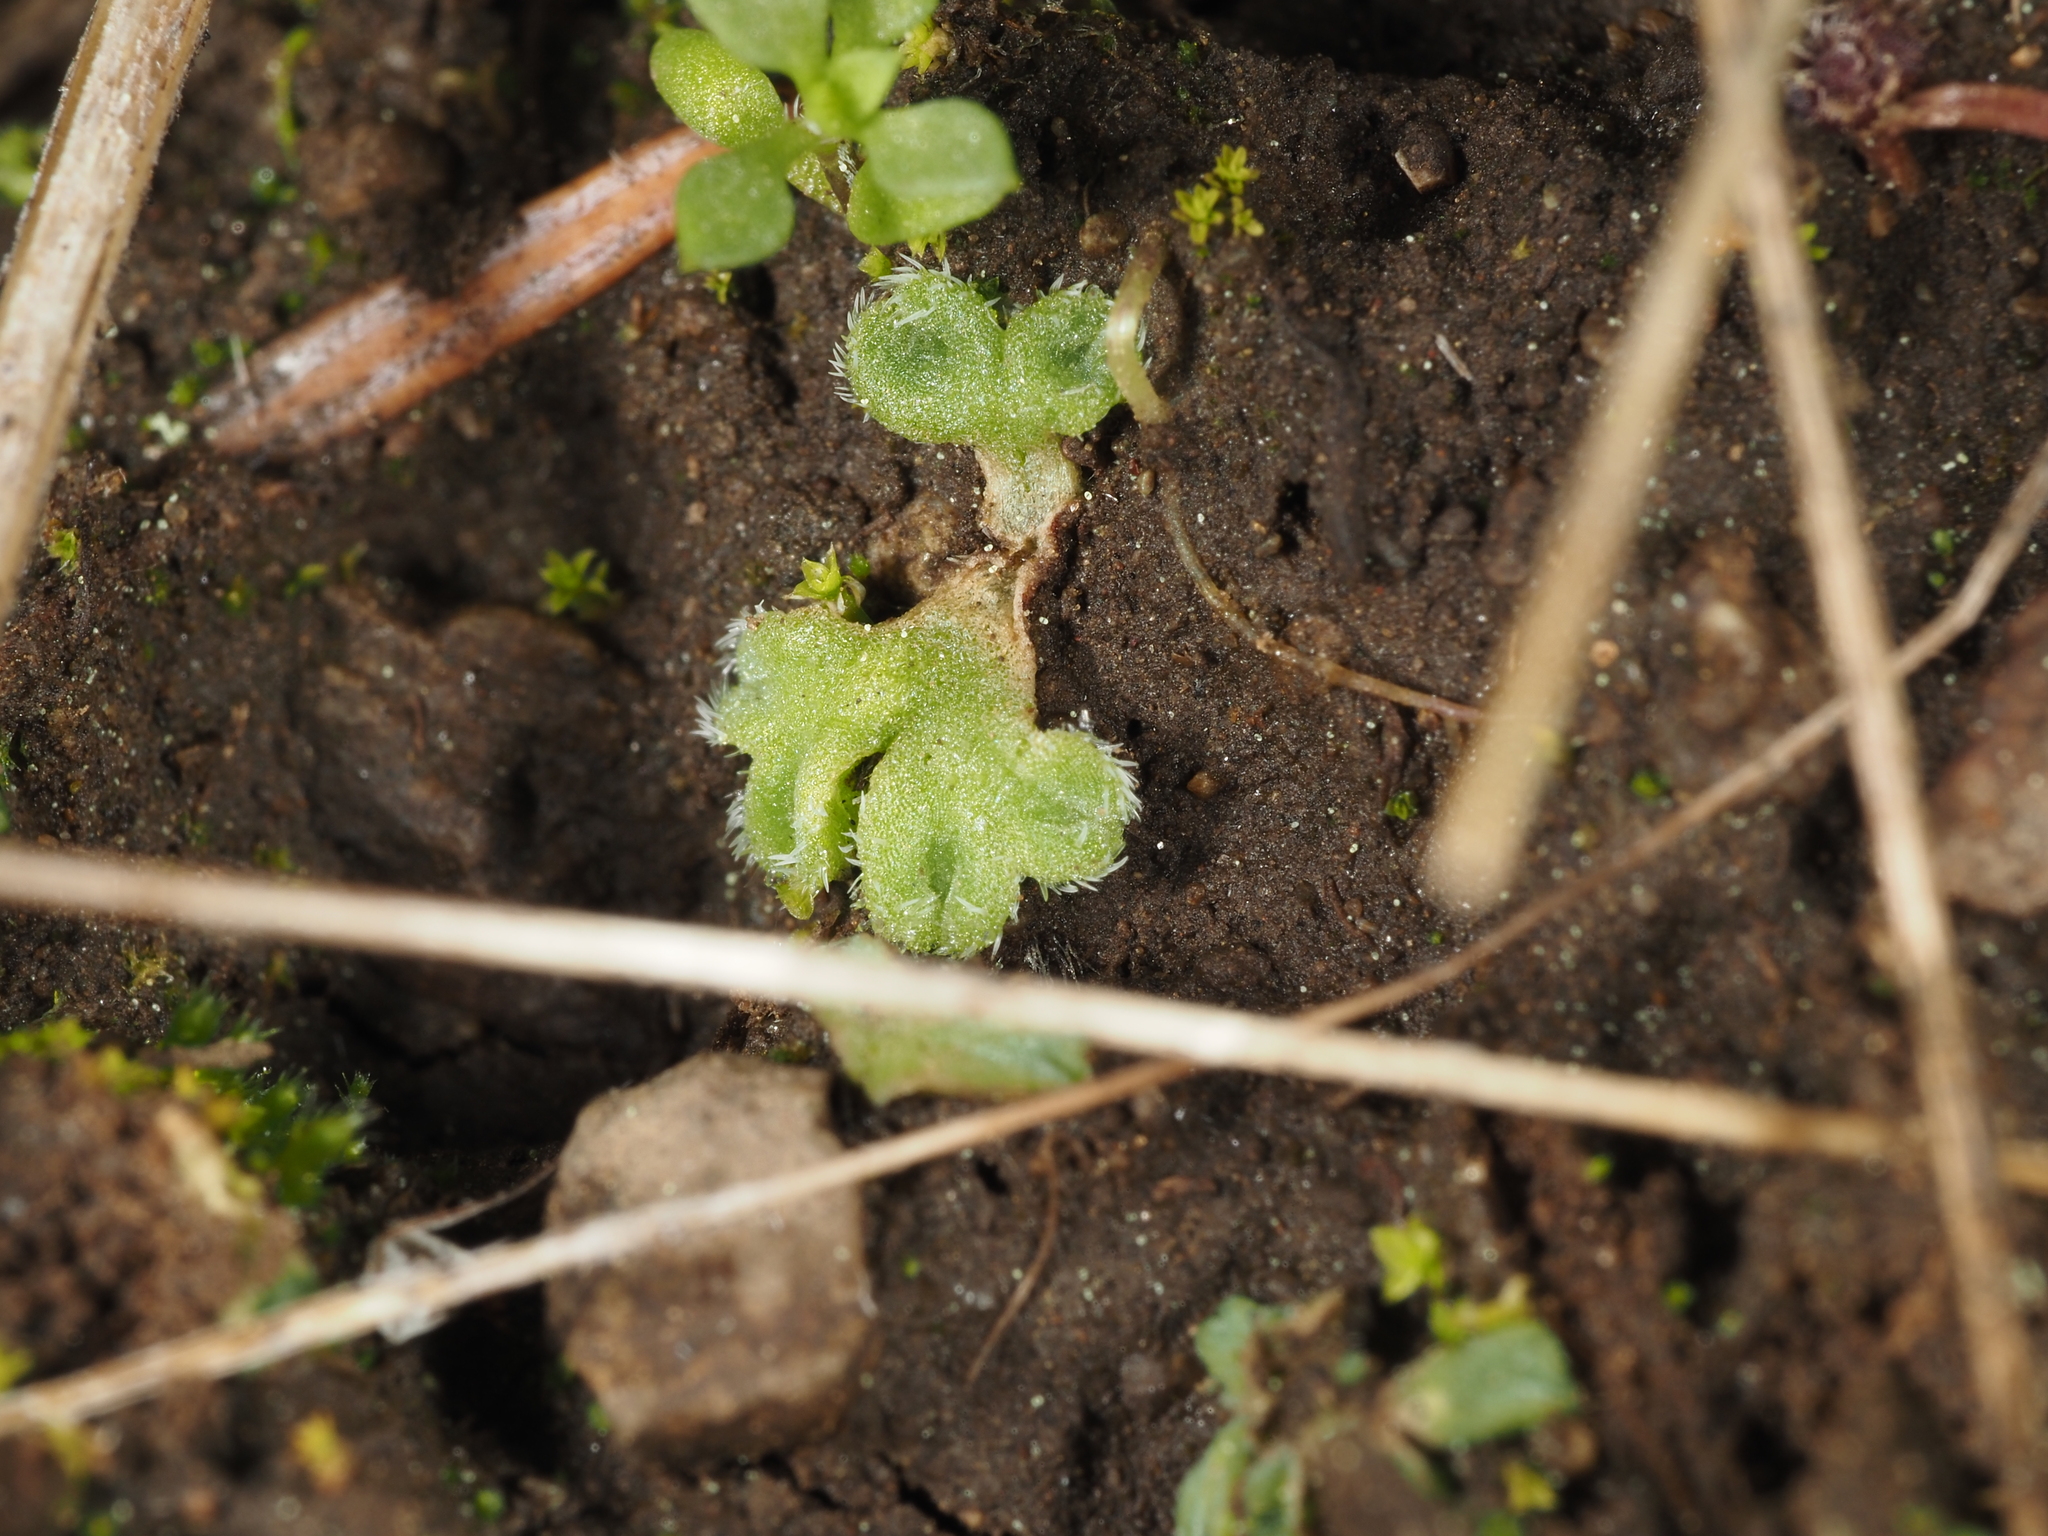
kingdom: Plantae
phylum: Marchantiophyta
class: Marchantiopsida
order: Marchantiales
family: Ricciaceae
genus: Riccia
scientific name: Riccia trichocarpa
